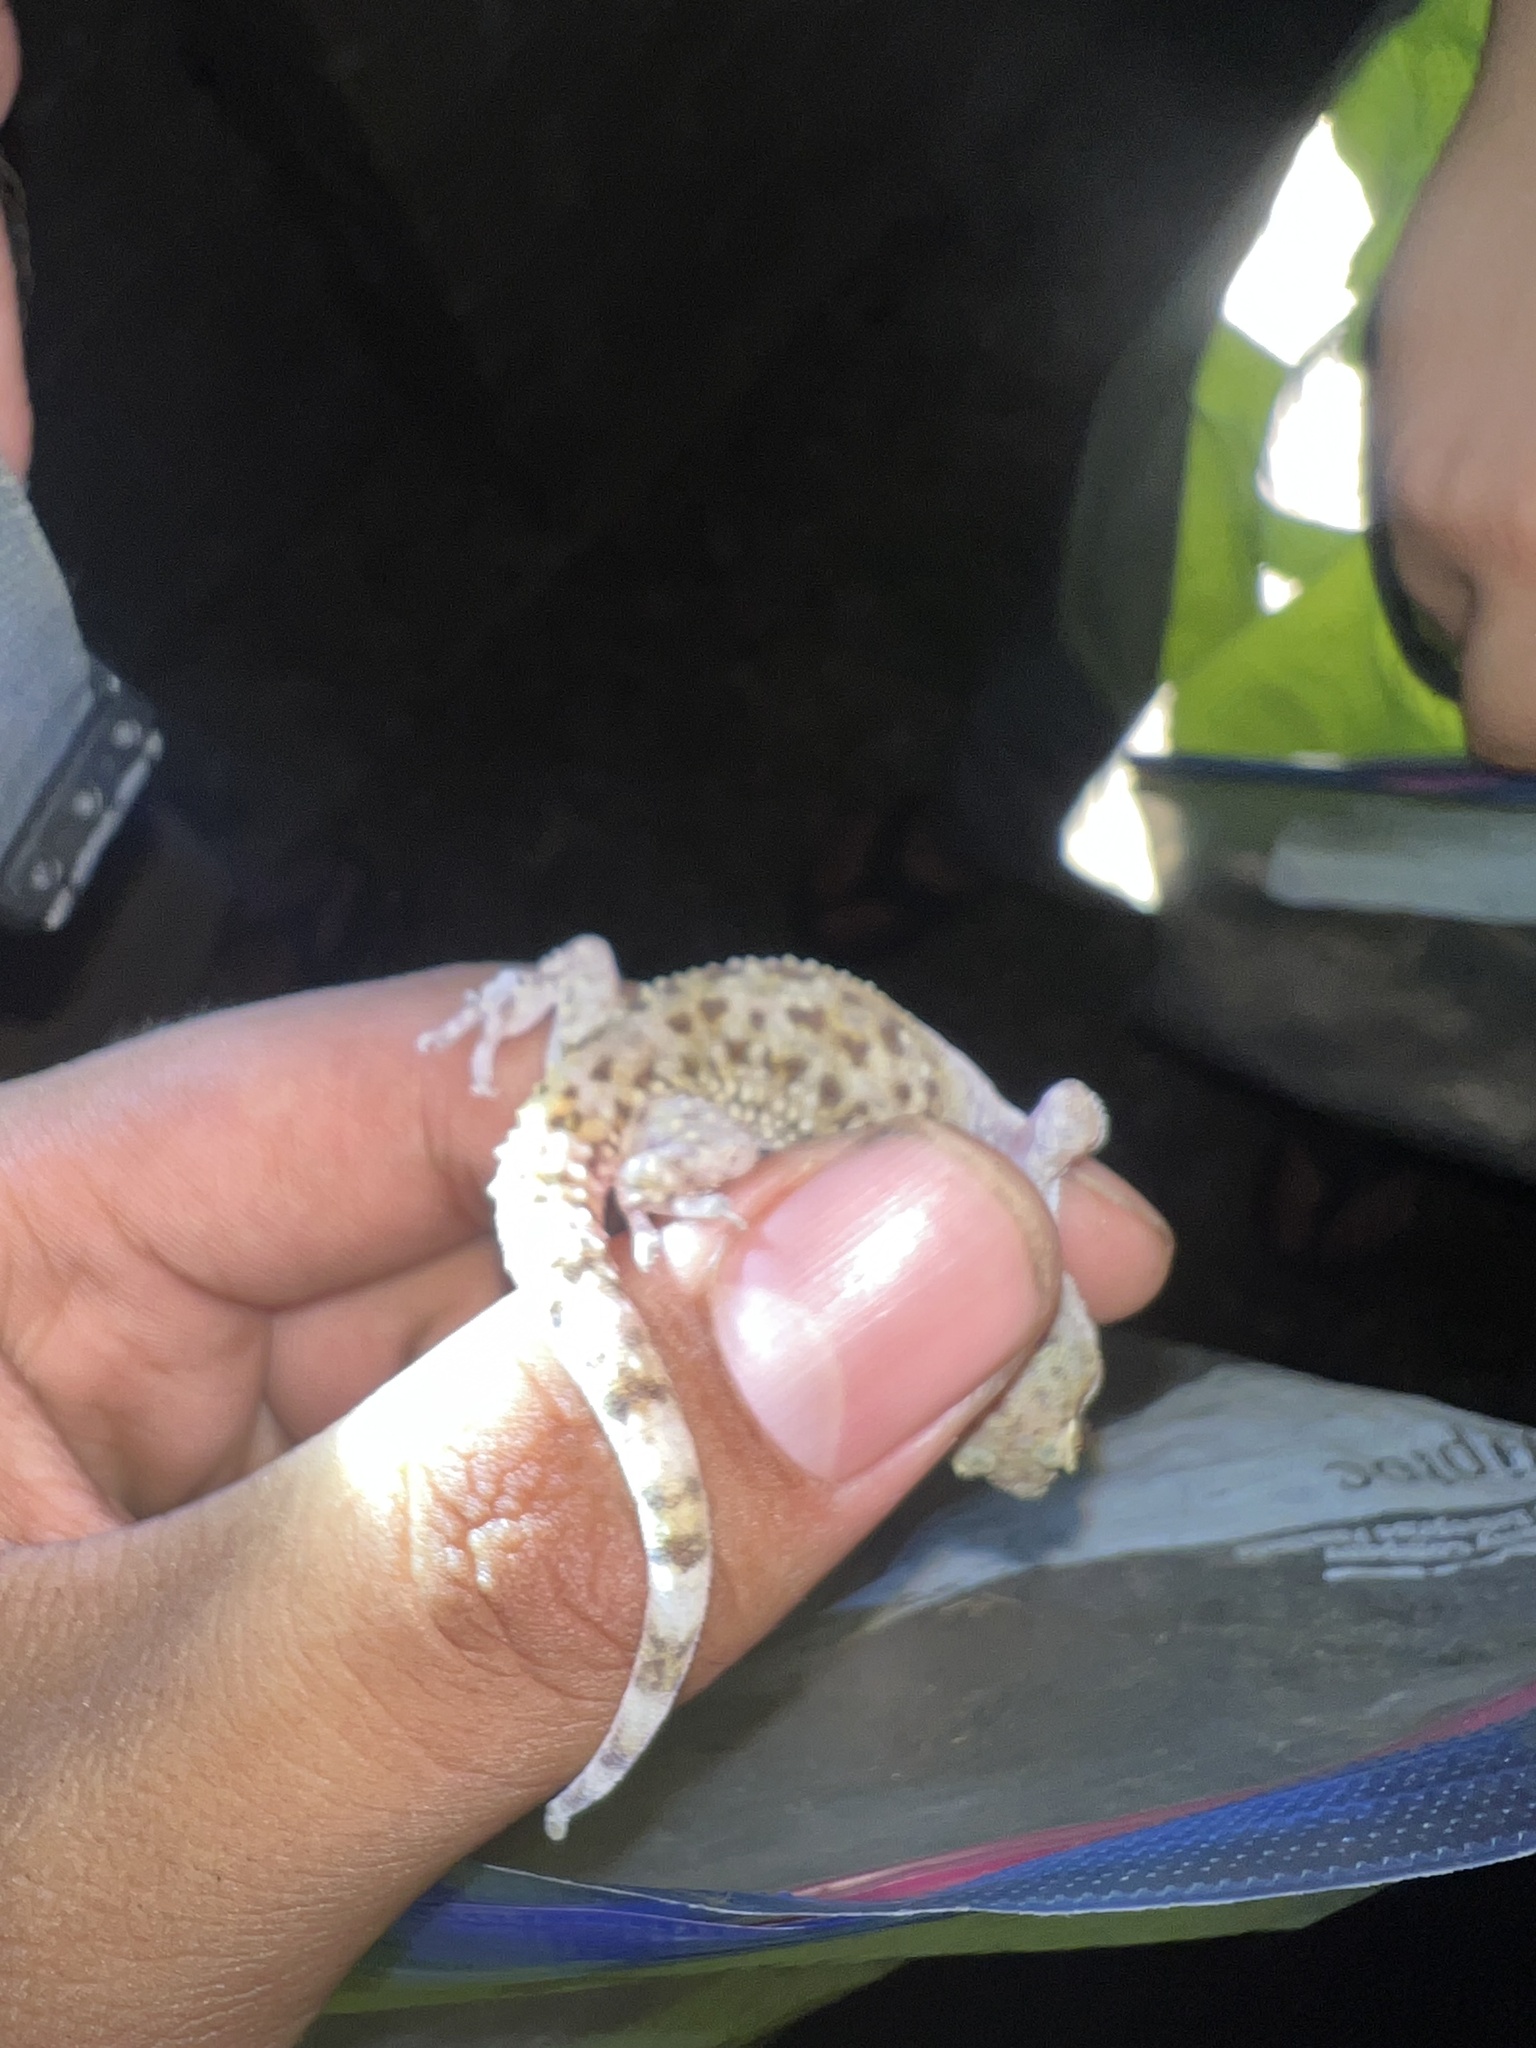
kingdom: Animalia
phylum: Chordata
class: Squamata
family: Gekkonidae
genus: Hemidactylus
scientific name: Hemidactylus turcicus
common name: Turkish gecko
